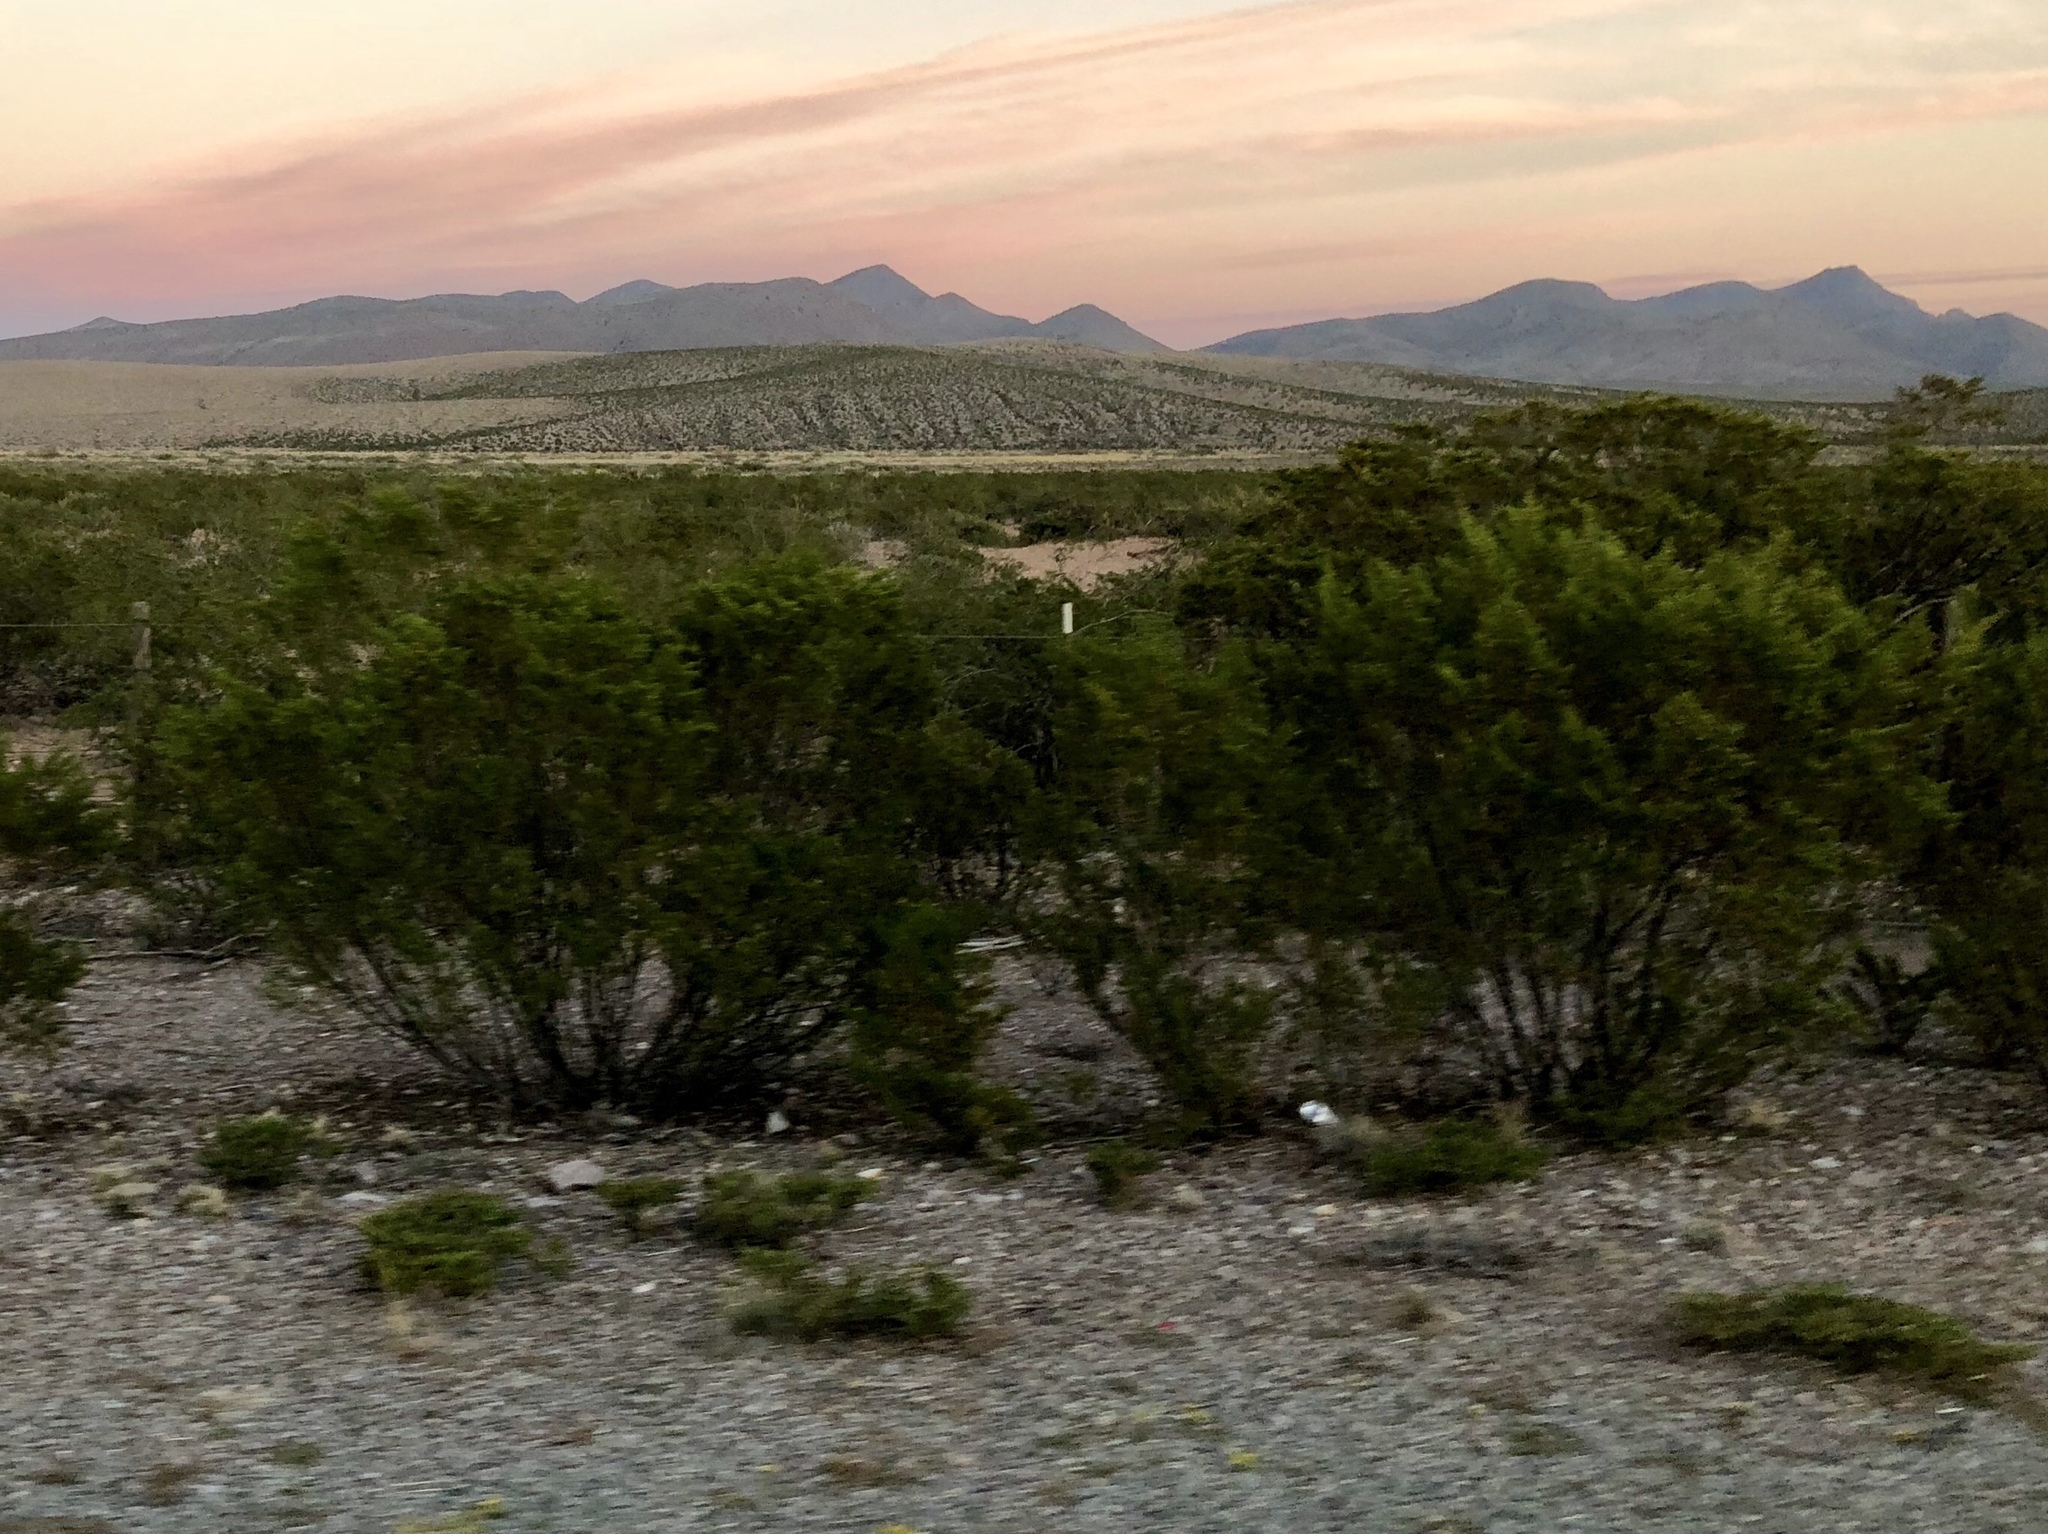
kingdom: Plantae
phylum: Tracheophyta
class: Magnoliopsida
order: Zygophyllales
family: Zygophyllaceae
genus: Larrea
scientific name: Larrea tridentata
